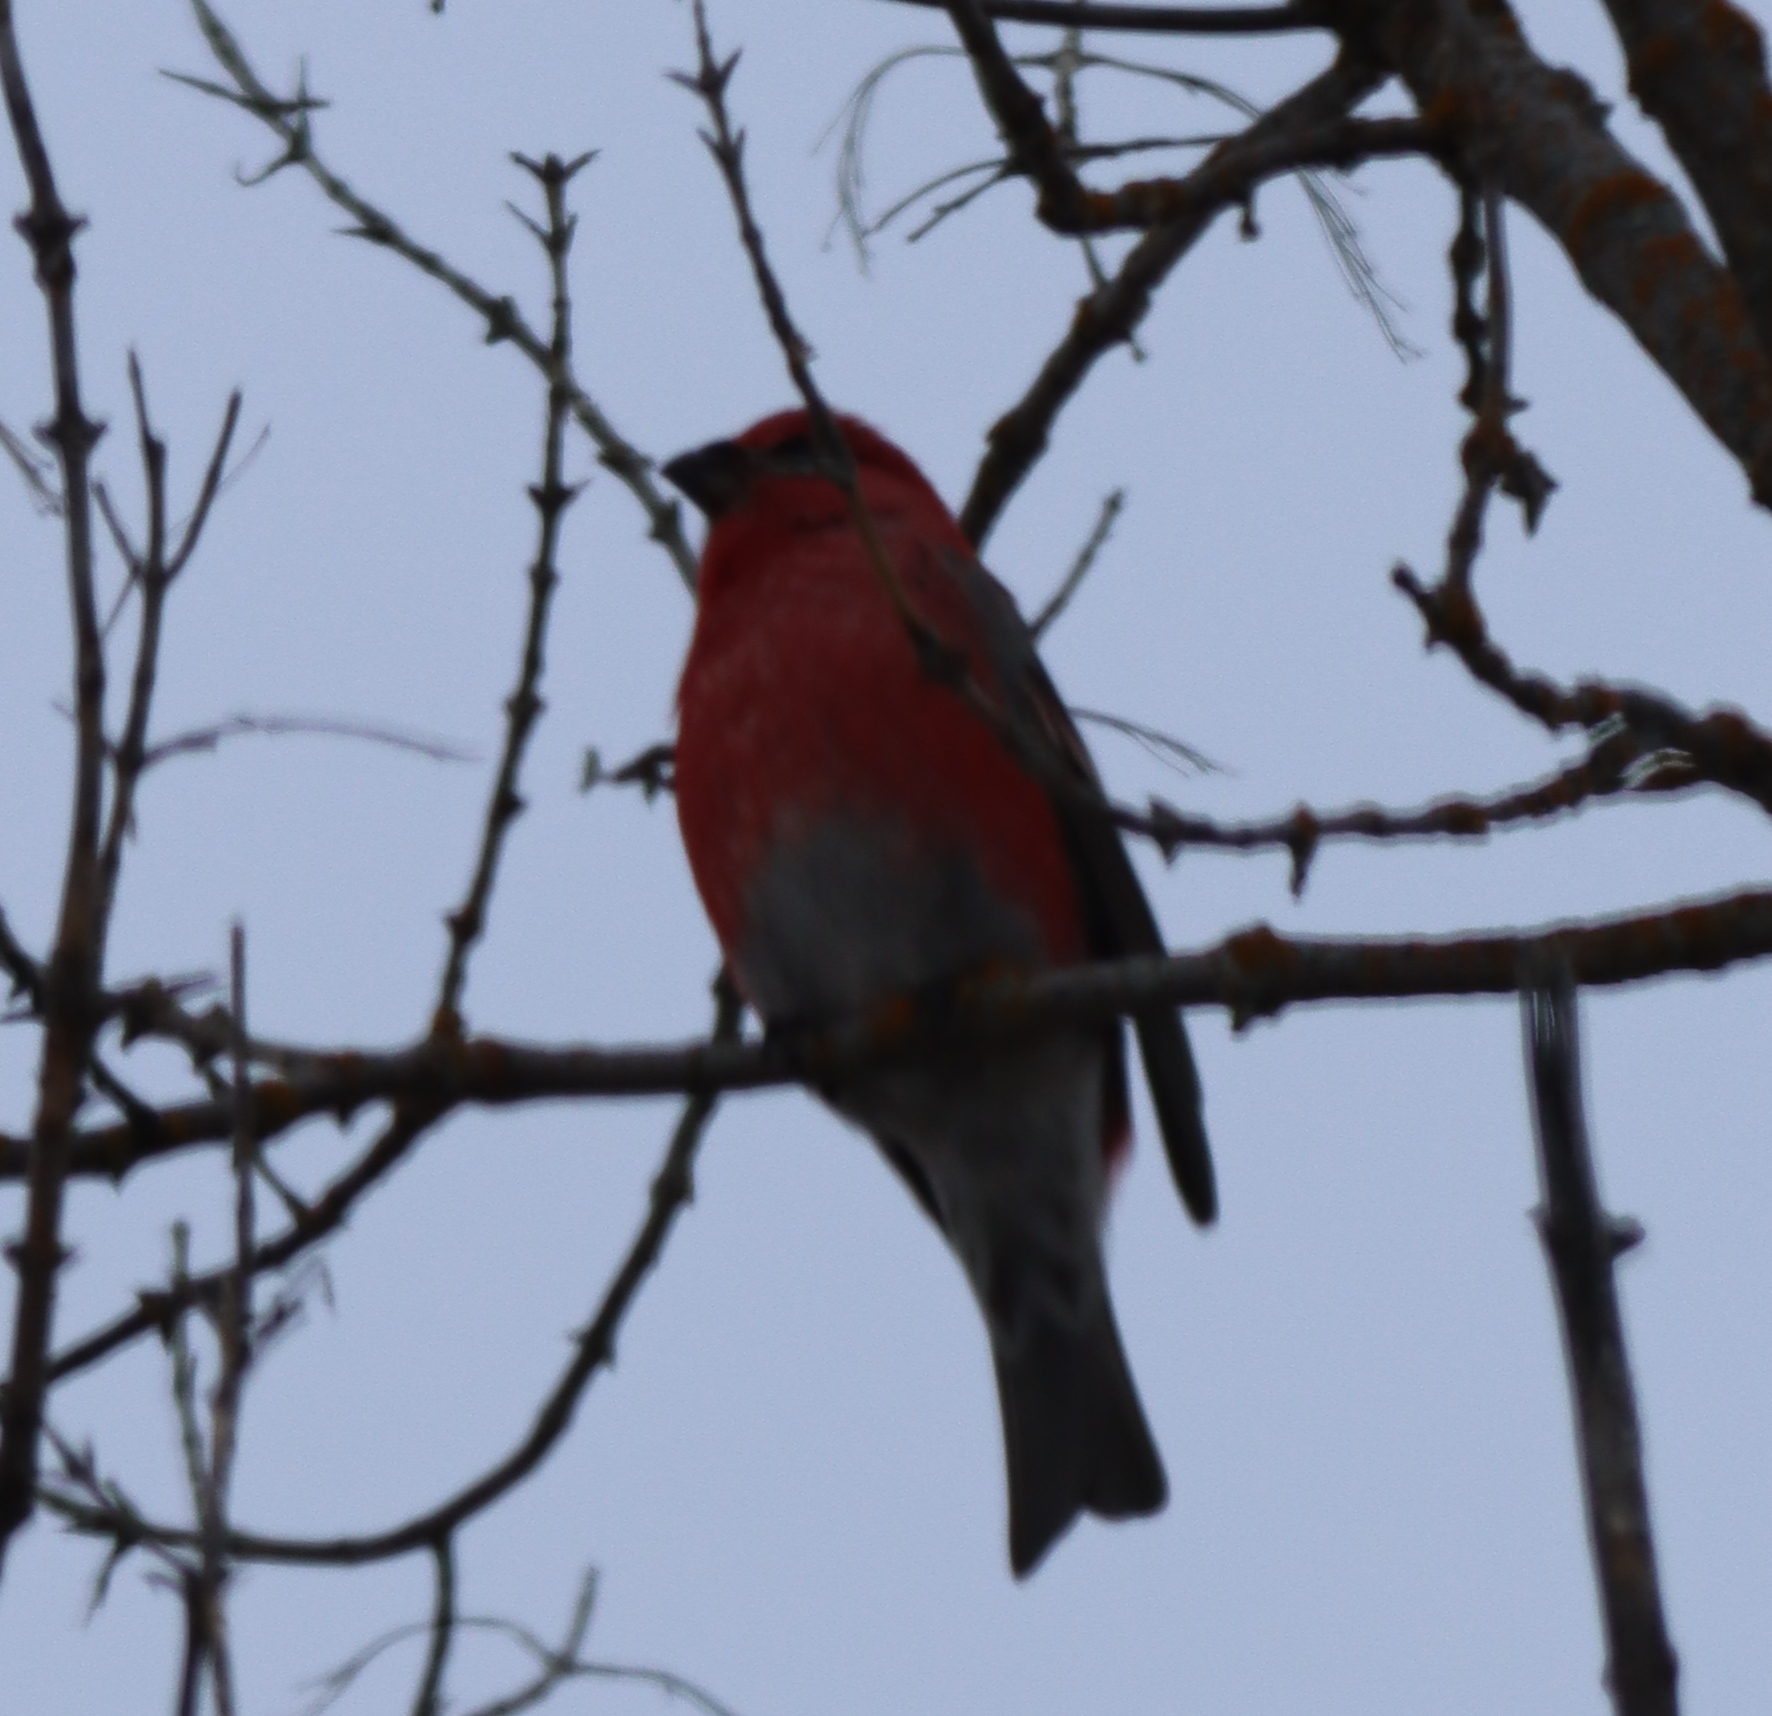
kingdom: Animalia
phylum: Chordata
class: Aves
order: Passeriformes
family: Fringillidae
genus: Pinicola
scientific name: Pinicola enucleator
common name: Pine grosbeak
